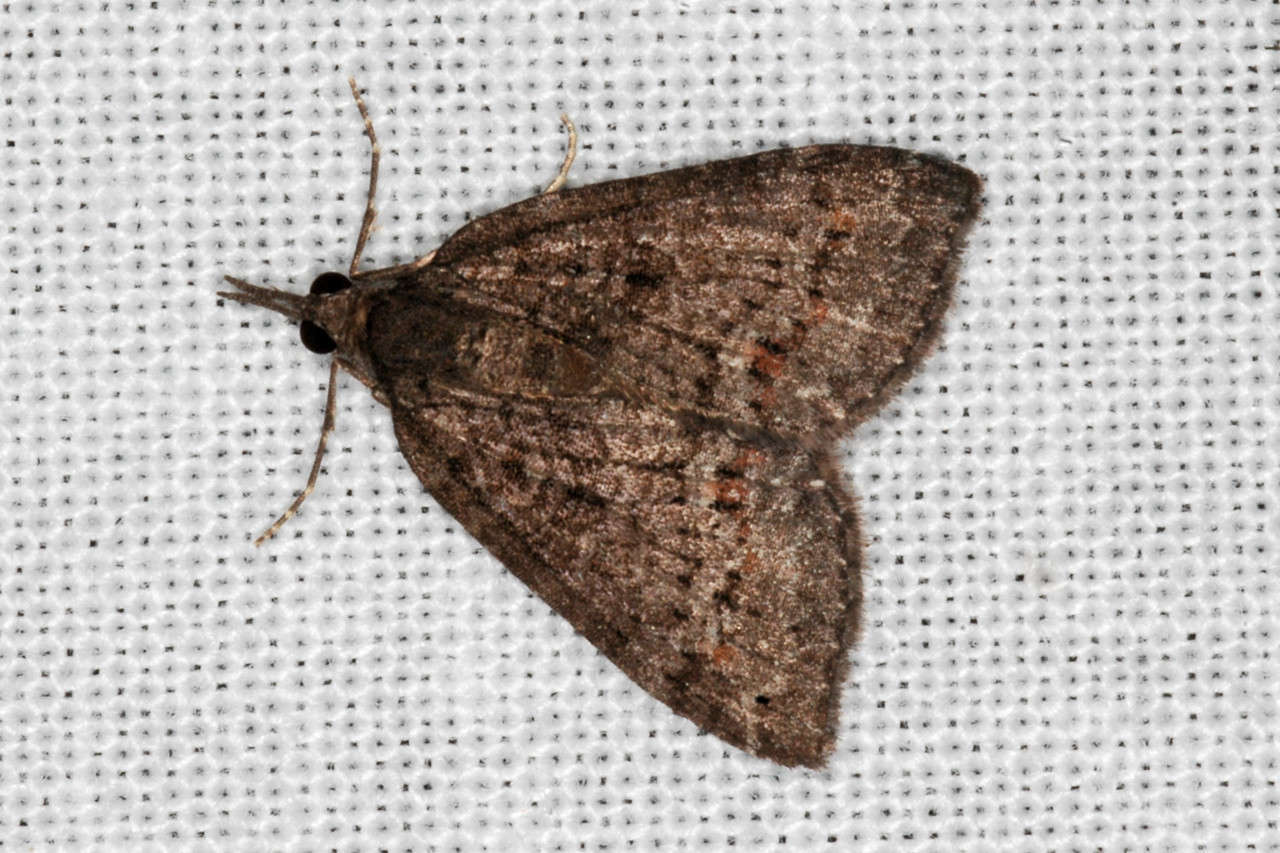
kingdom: Animalia
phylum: Arthropoda
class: Insecta
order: Lepidoptera
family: Geometridae
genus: Microdes
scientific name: Microdes squamulata
